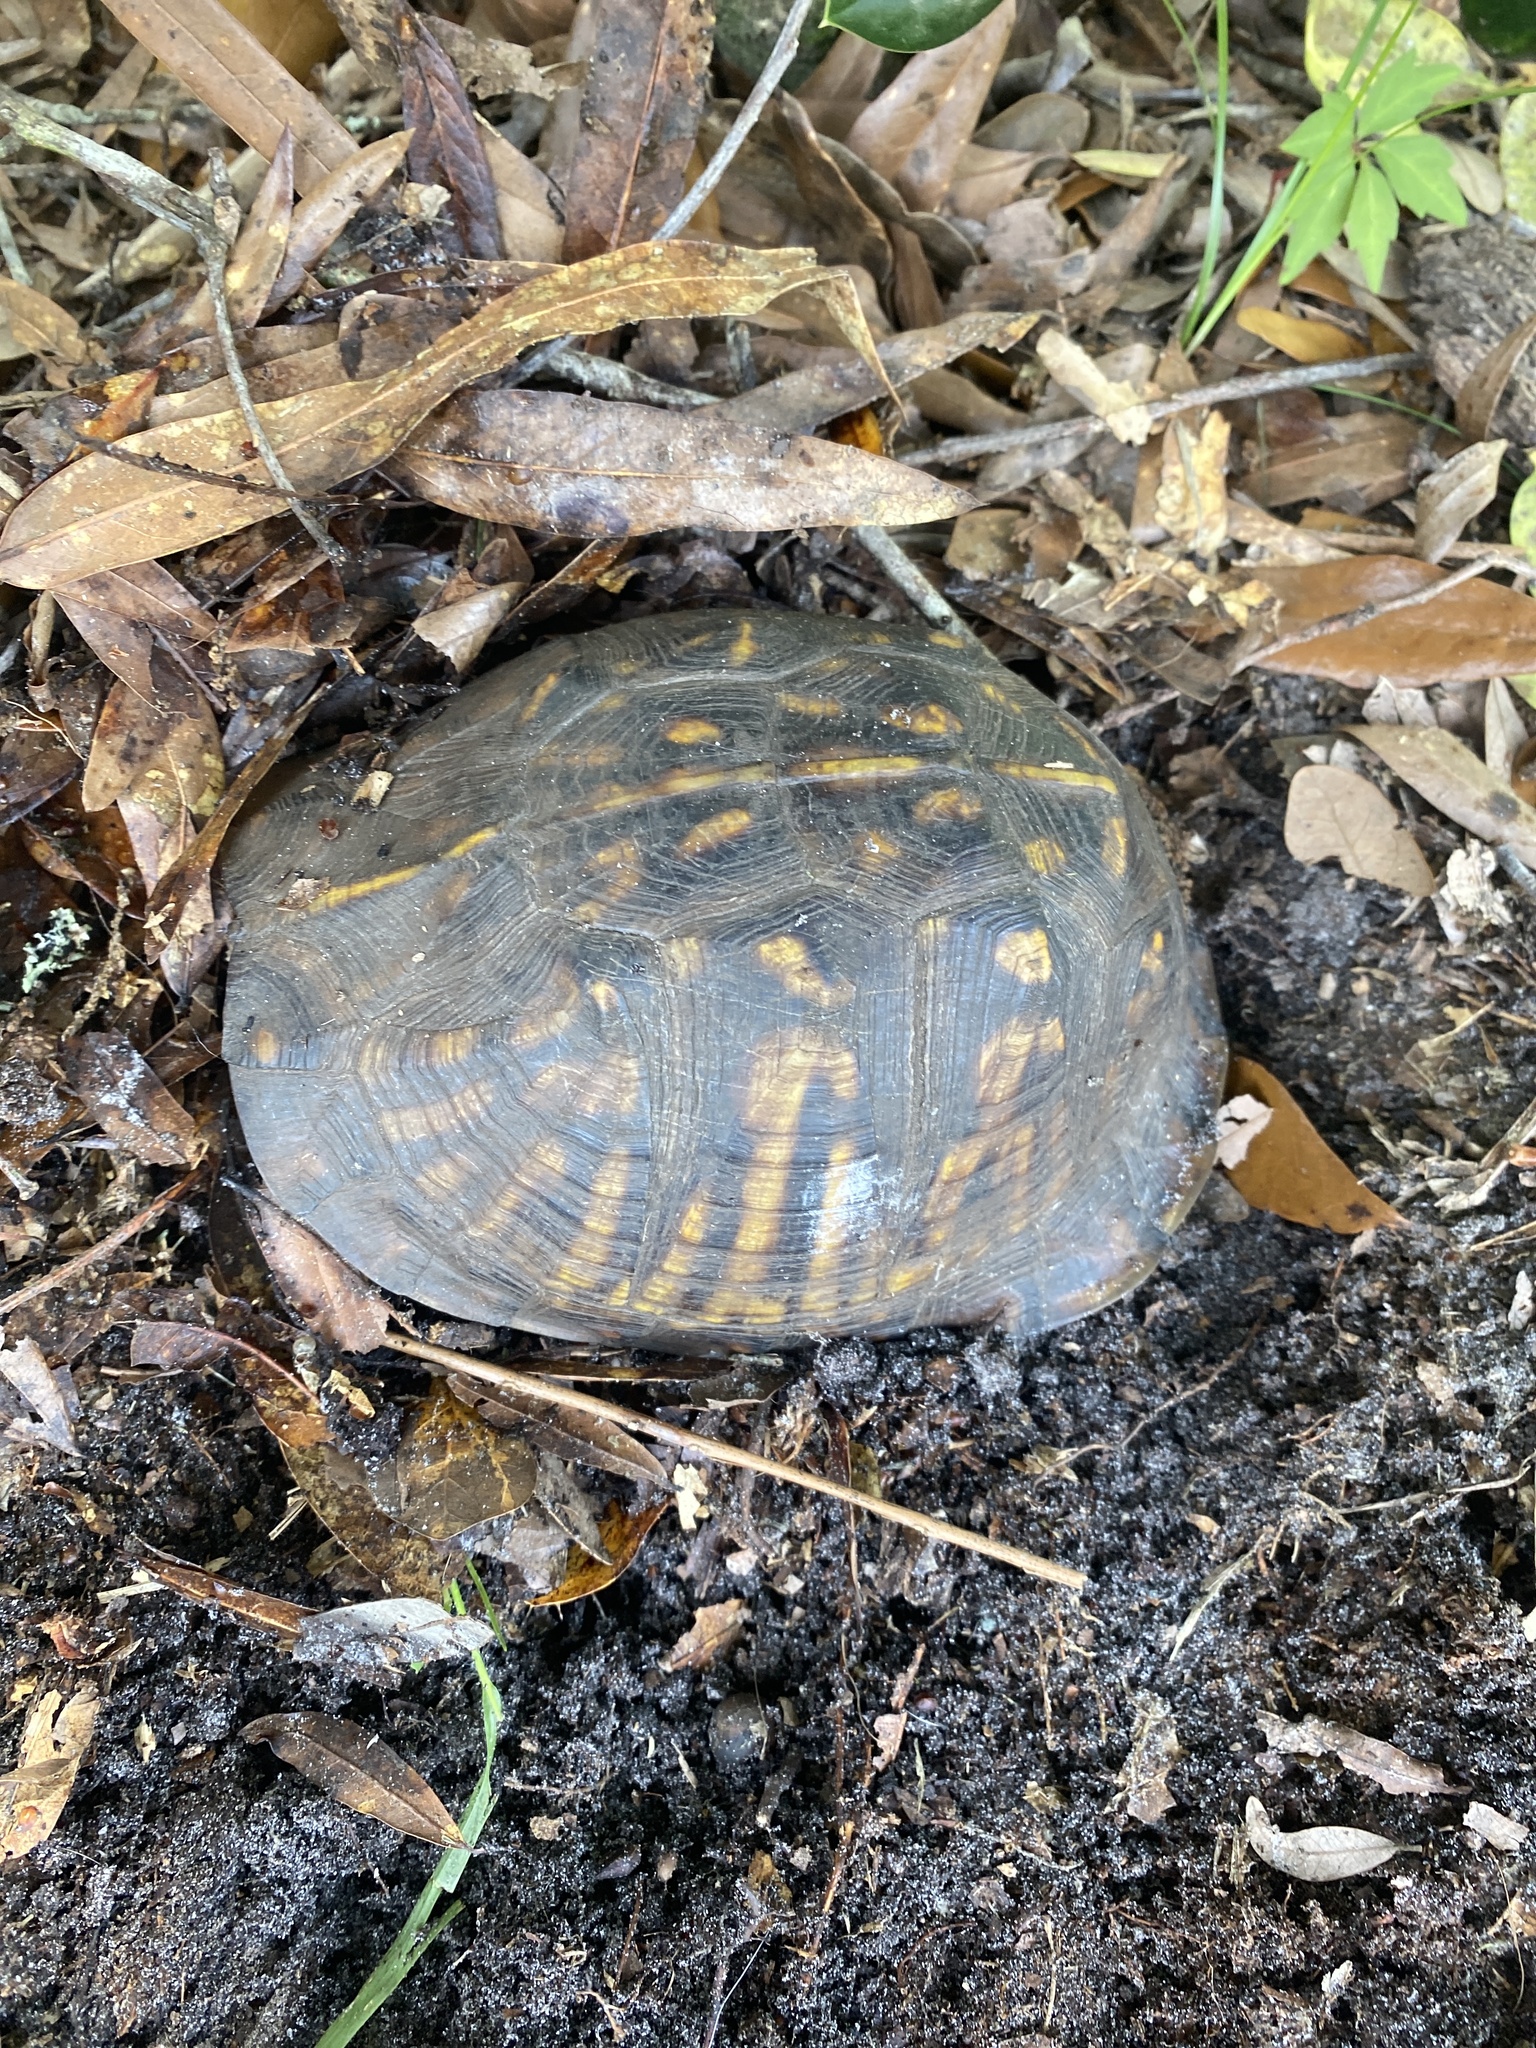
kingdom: Animalia
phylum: Chordata
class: Testudines
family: Emydidae
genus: Terrapene
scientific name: Terrapene carolina
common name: Common box turtle
